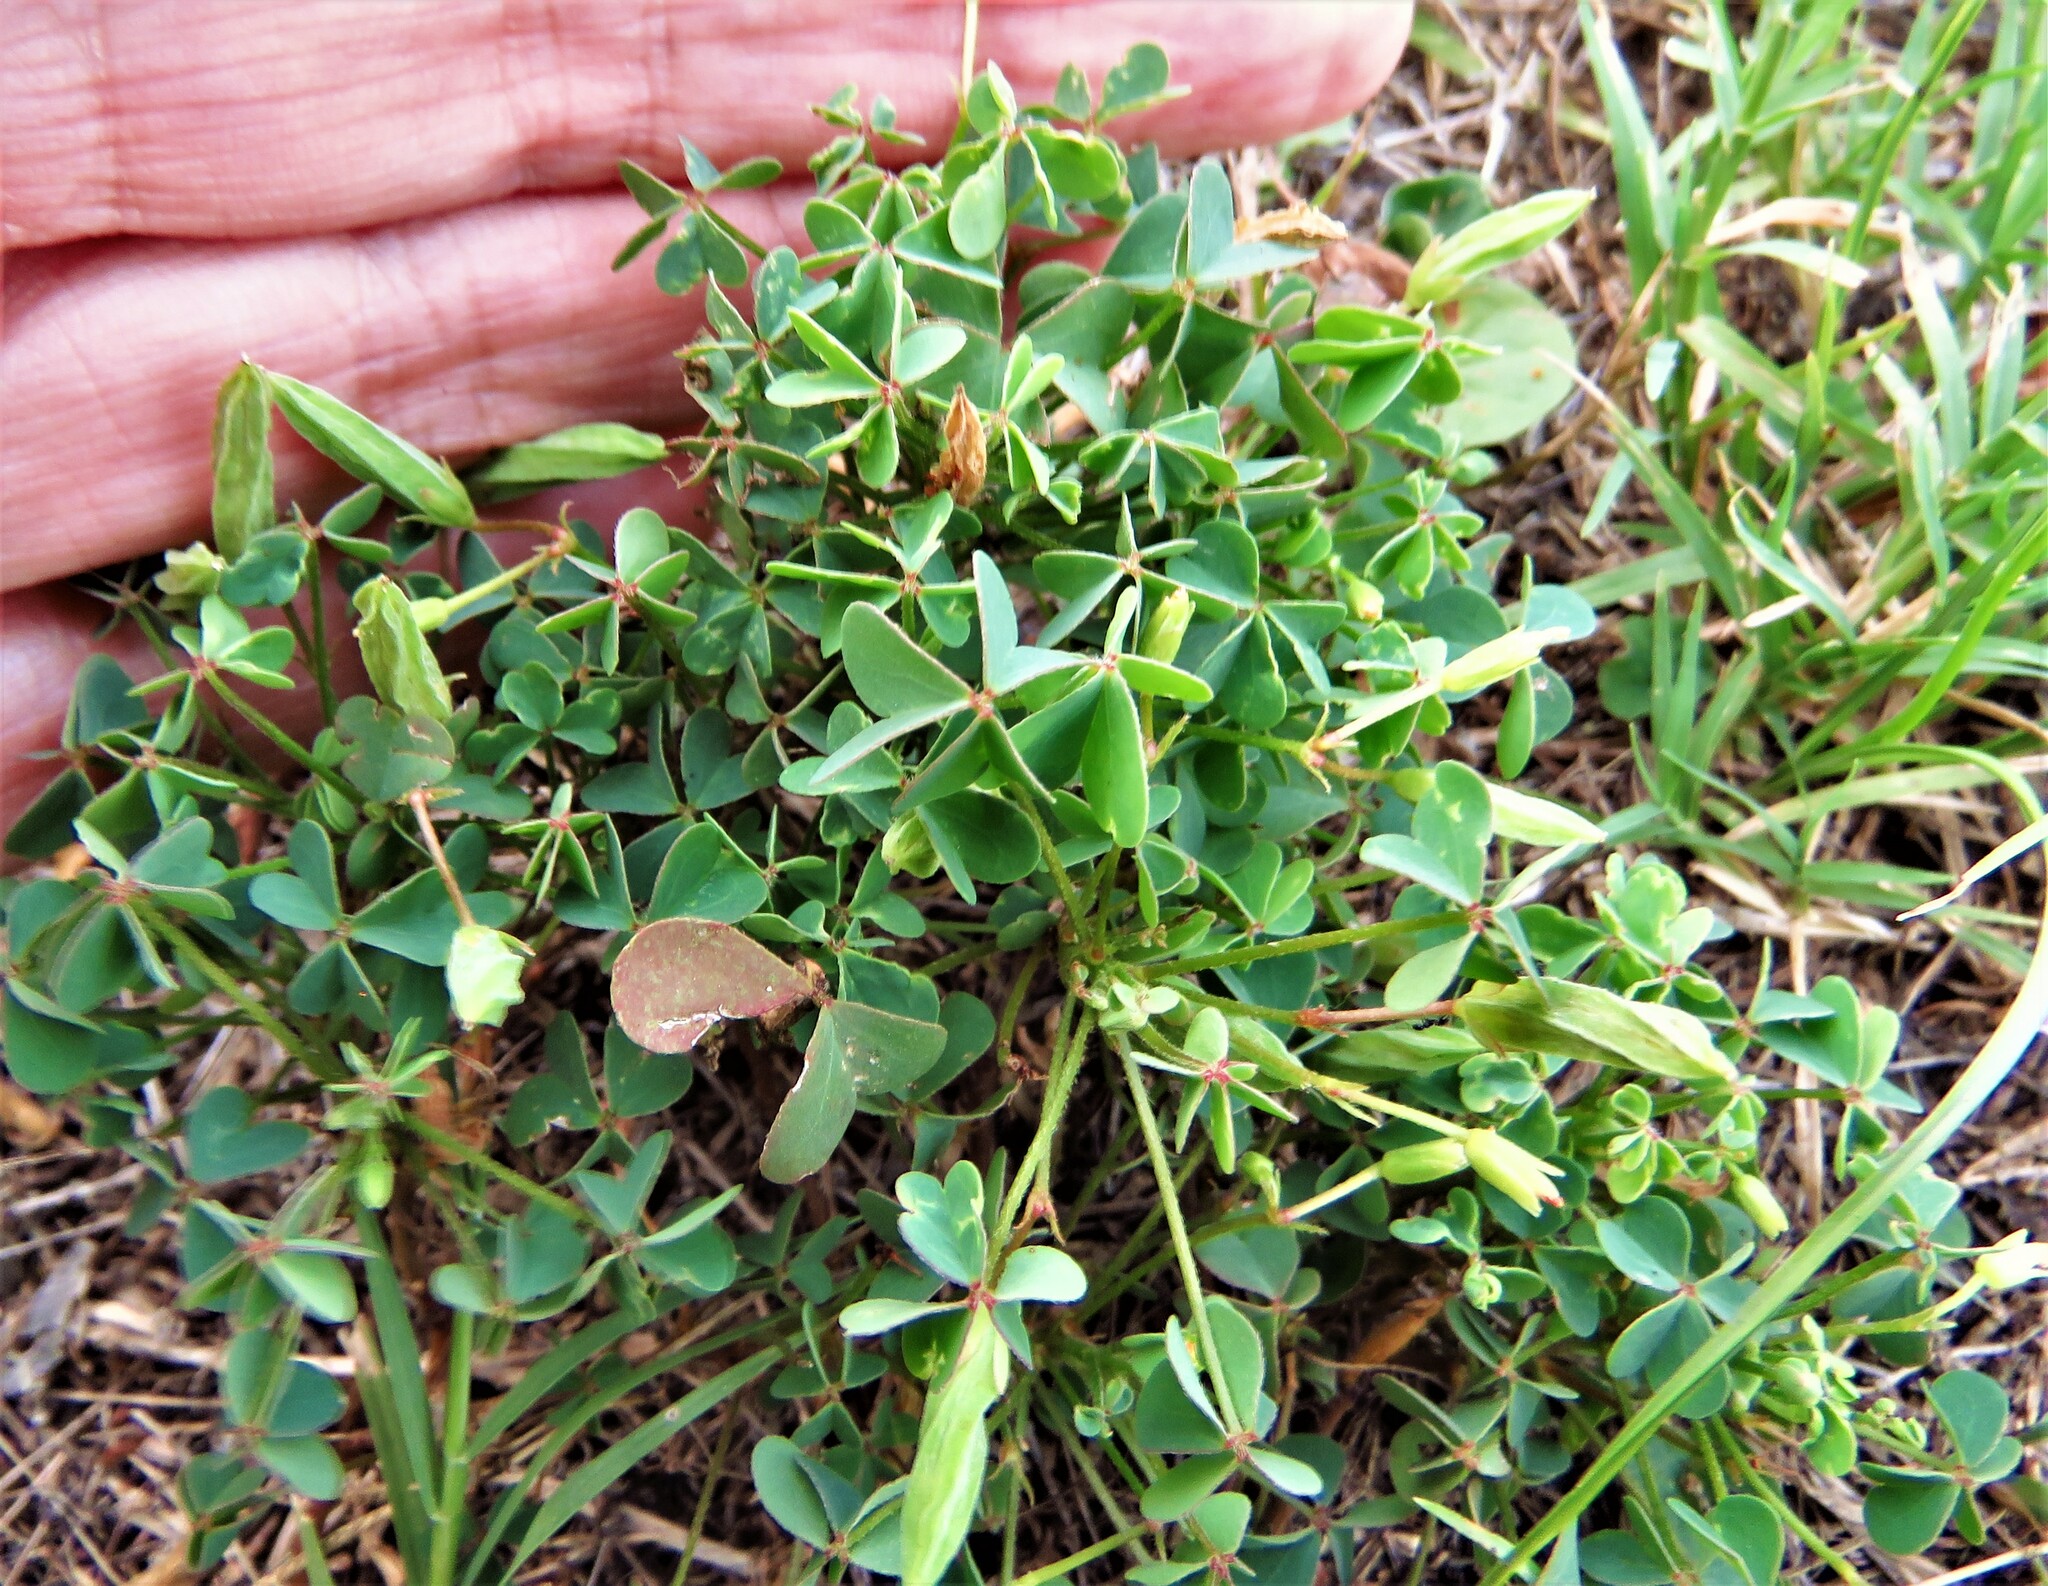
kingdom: Plantae
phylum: Tracheophyta
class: Magnoliopsida
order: Oxalidales
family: Oxalidaceae
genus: Oxalis
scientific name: Oxalis dillenii
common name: Sussex yellow-sorrel
